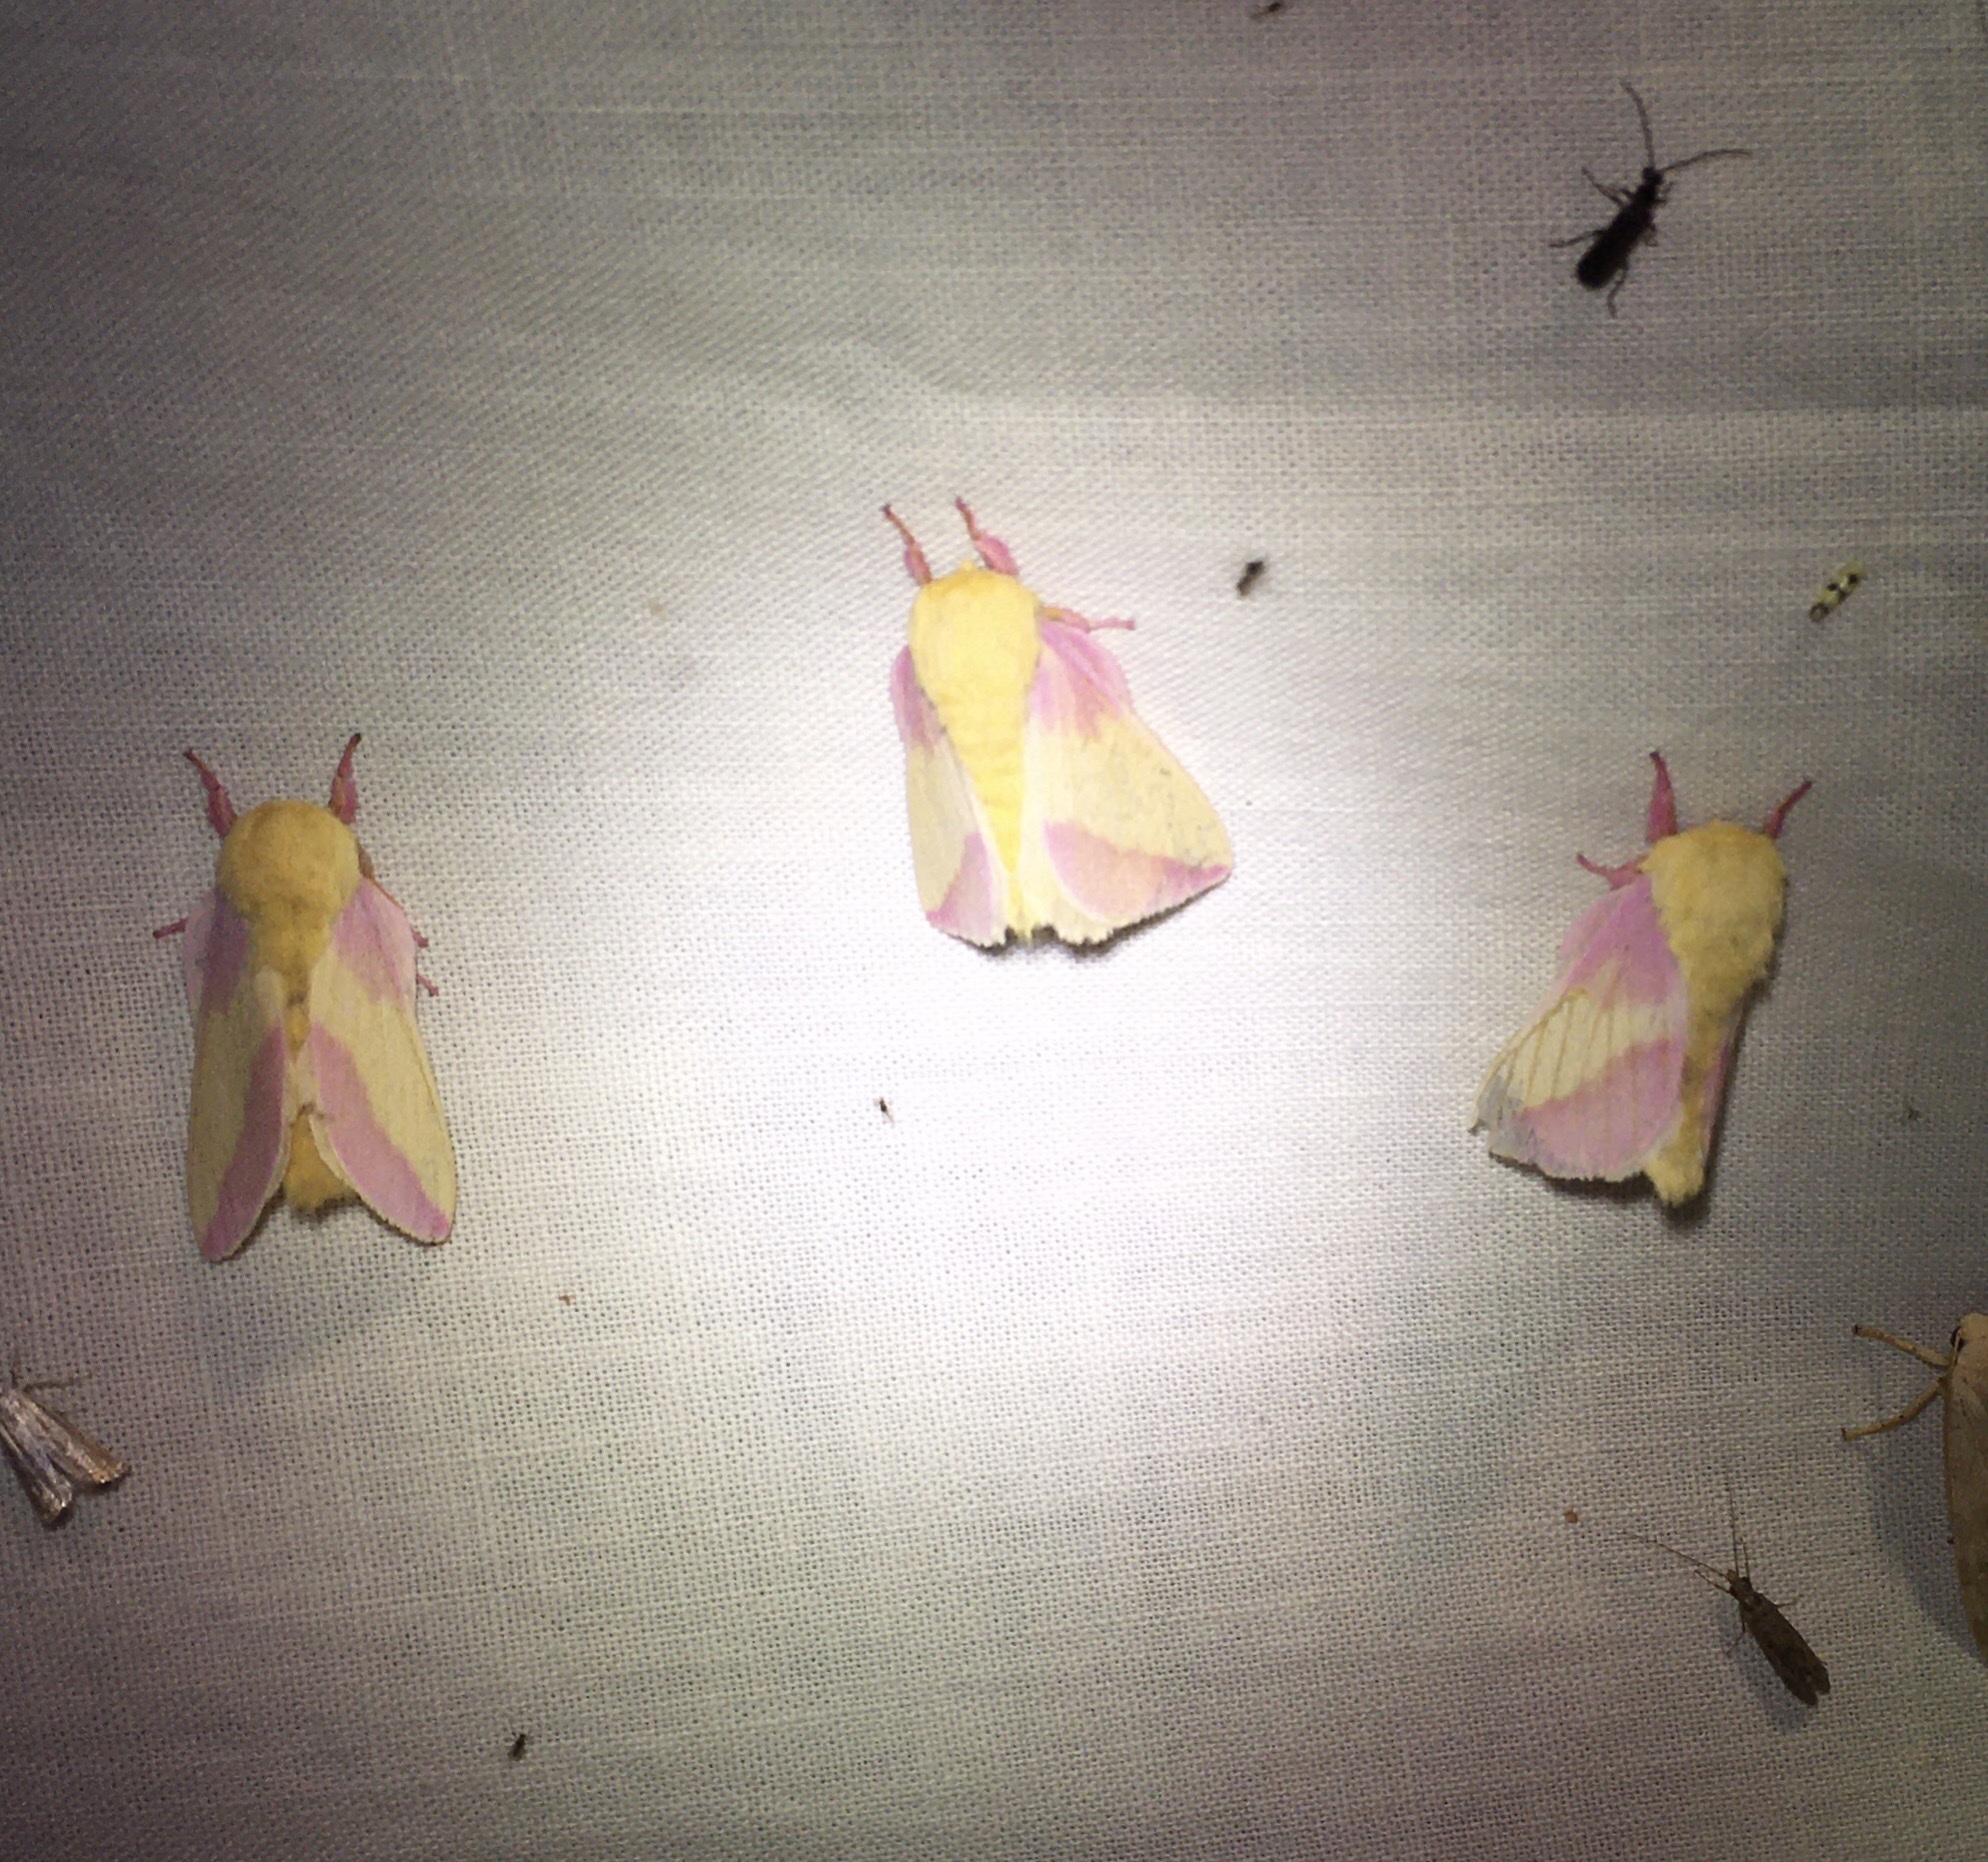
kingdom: Animalia
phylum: Arthropoda
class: Insecta
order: Lepidoptera
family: Saturniidae
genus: Dryocampa
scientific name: Dryocampa rubicunda
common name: Rosy maple moth
